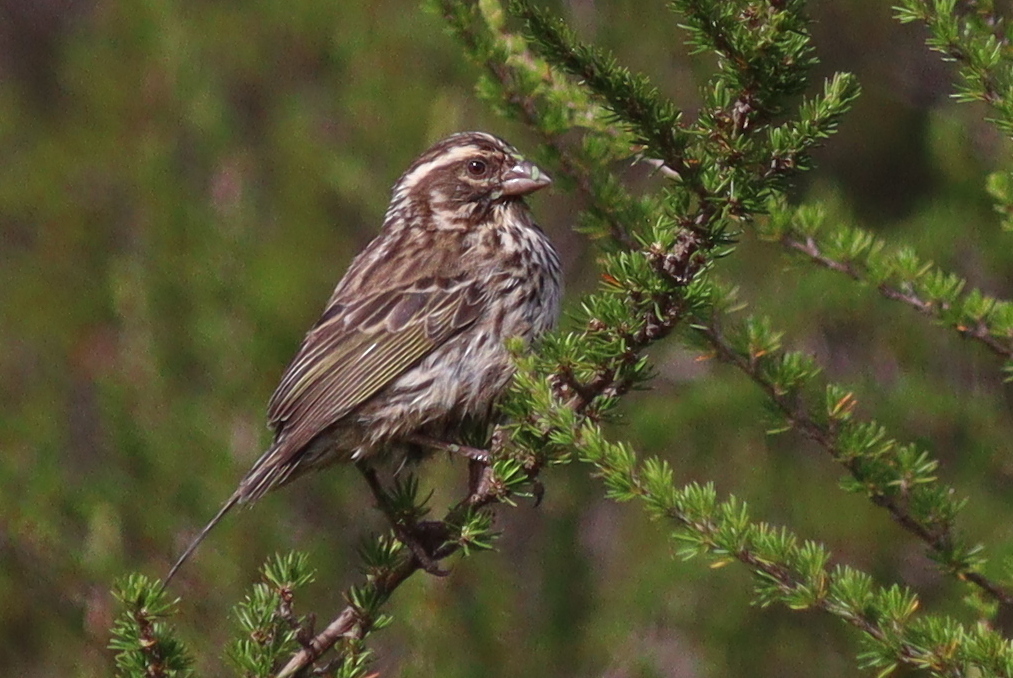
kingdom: Animalia
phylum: Chordata
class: Aves
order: Passeriformes
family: Fringillidae
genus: Crithagra
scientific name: Crithagra striolata
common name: Streaky seedeater
